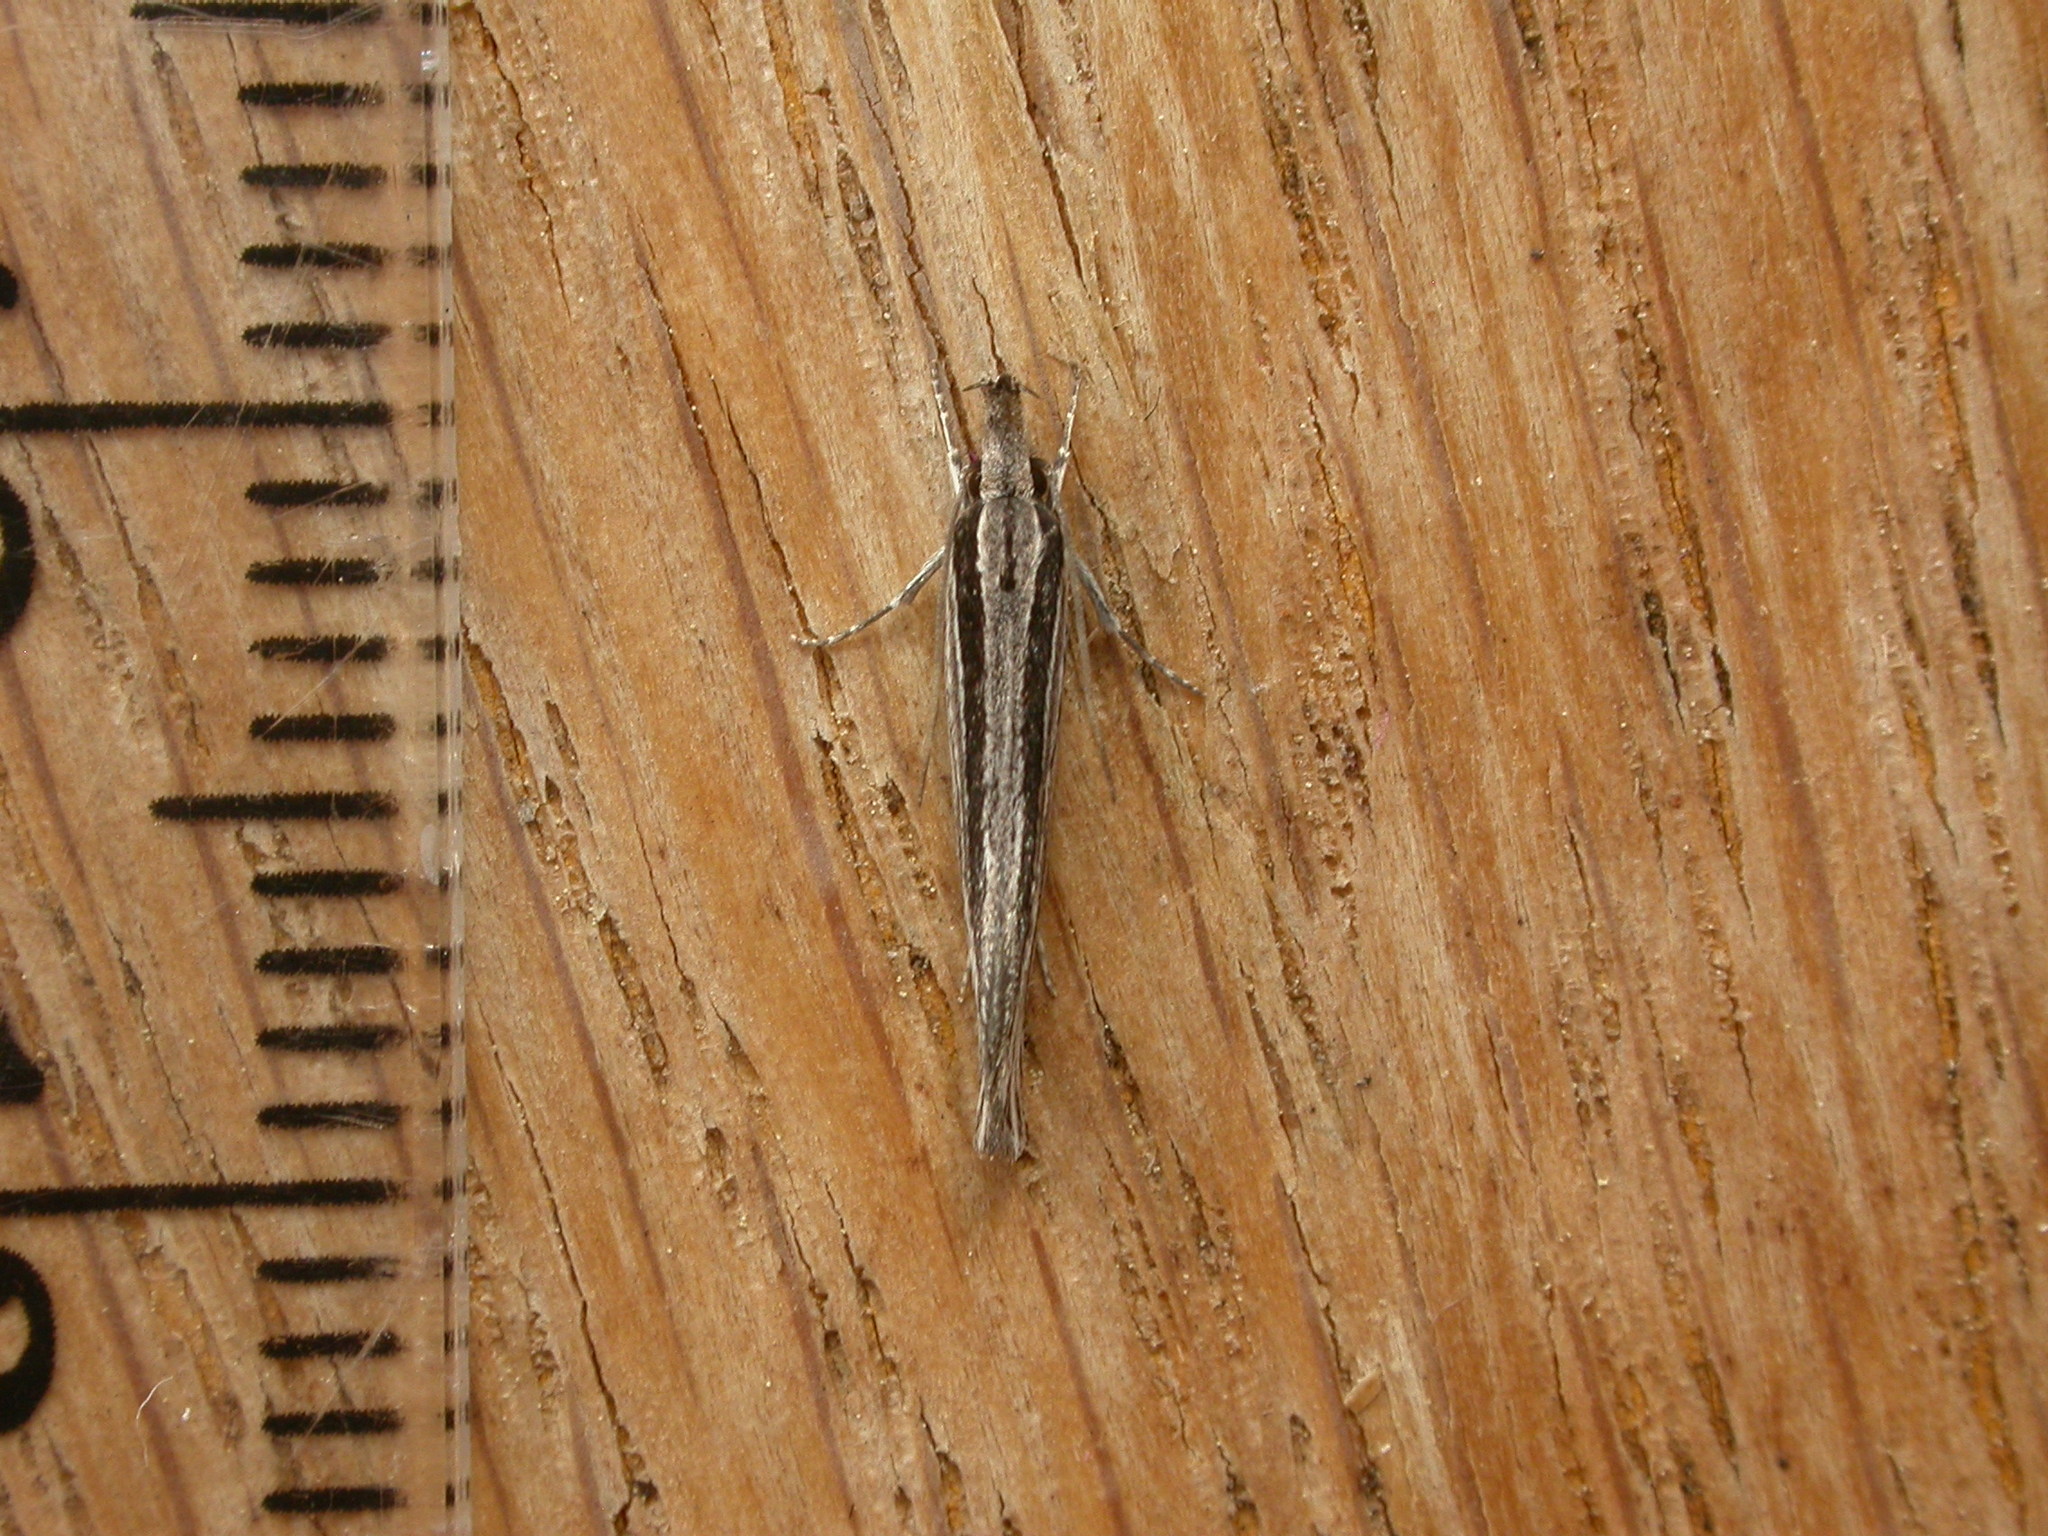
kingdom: Animalia
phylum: Arthropoda
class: Insecta
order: Lepidoptera
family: Depressariidae
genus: Cryptolechia
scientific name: Cryptolechia Leptosaces schistopa
